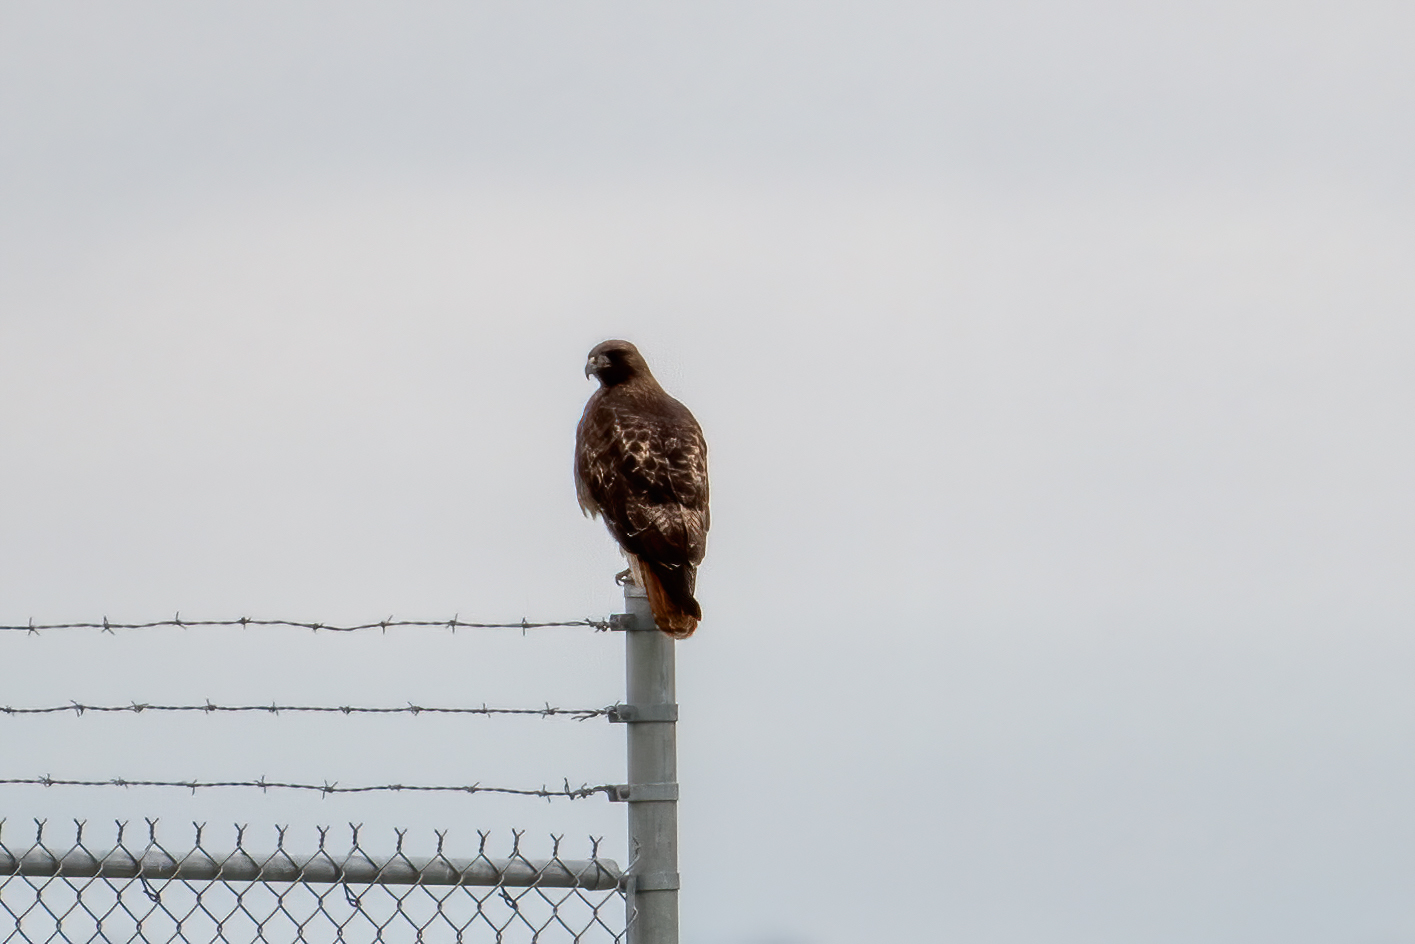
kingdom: Animalia
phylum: Chordata
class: Aves
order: Accipitriformes
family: Accipitridae
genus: Buteo
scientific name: Buteo jamaicensis
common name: Red-tailed hawk
